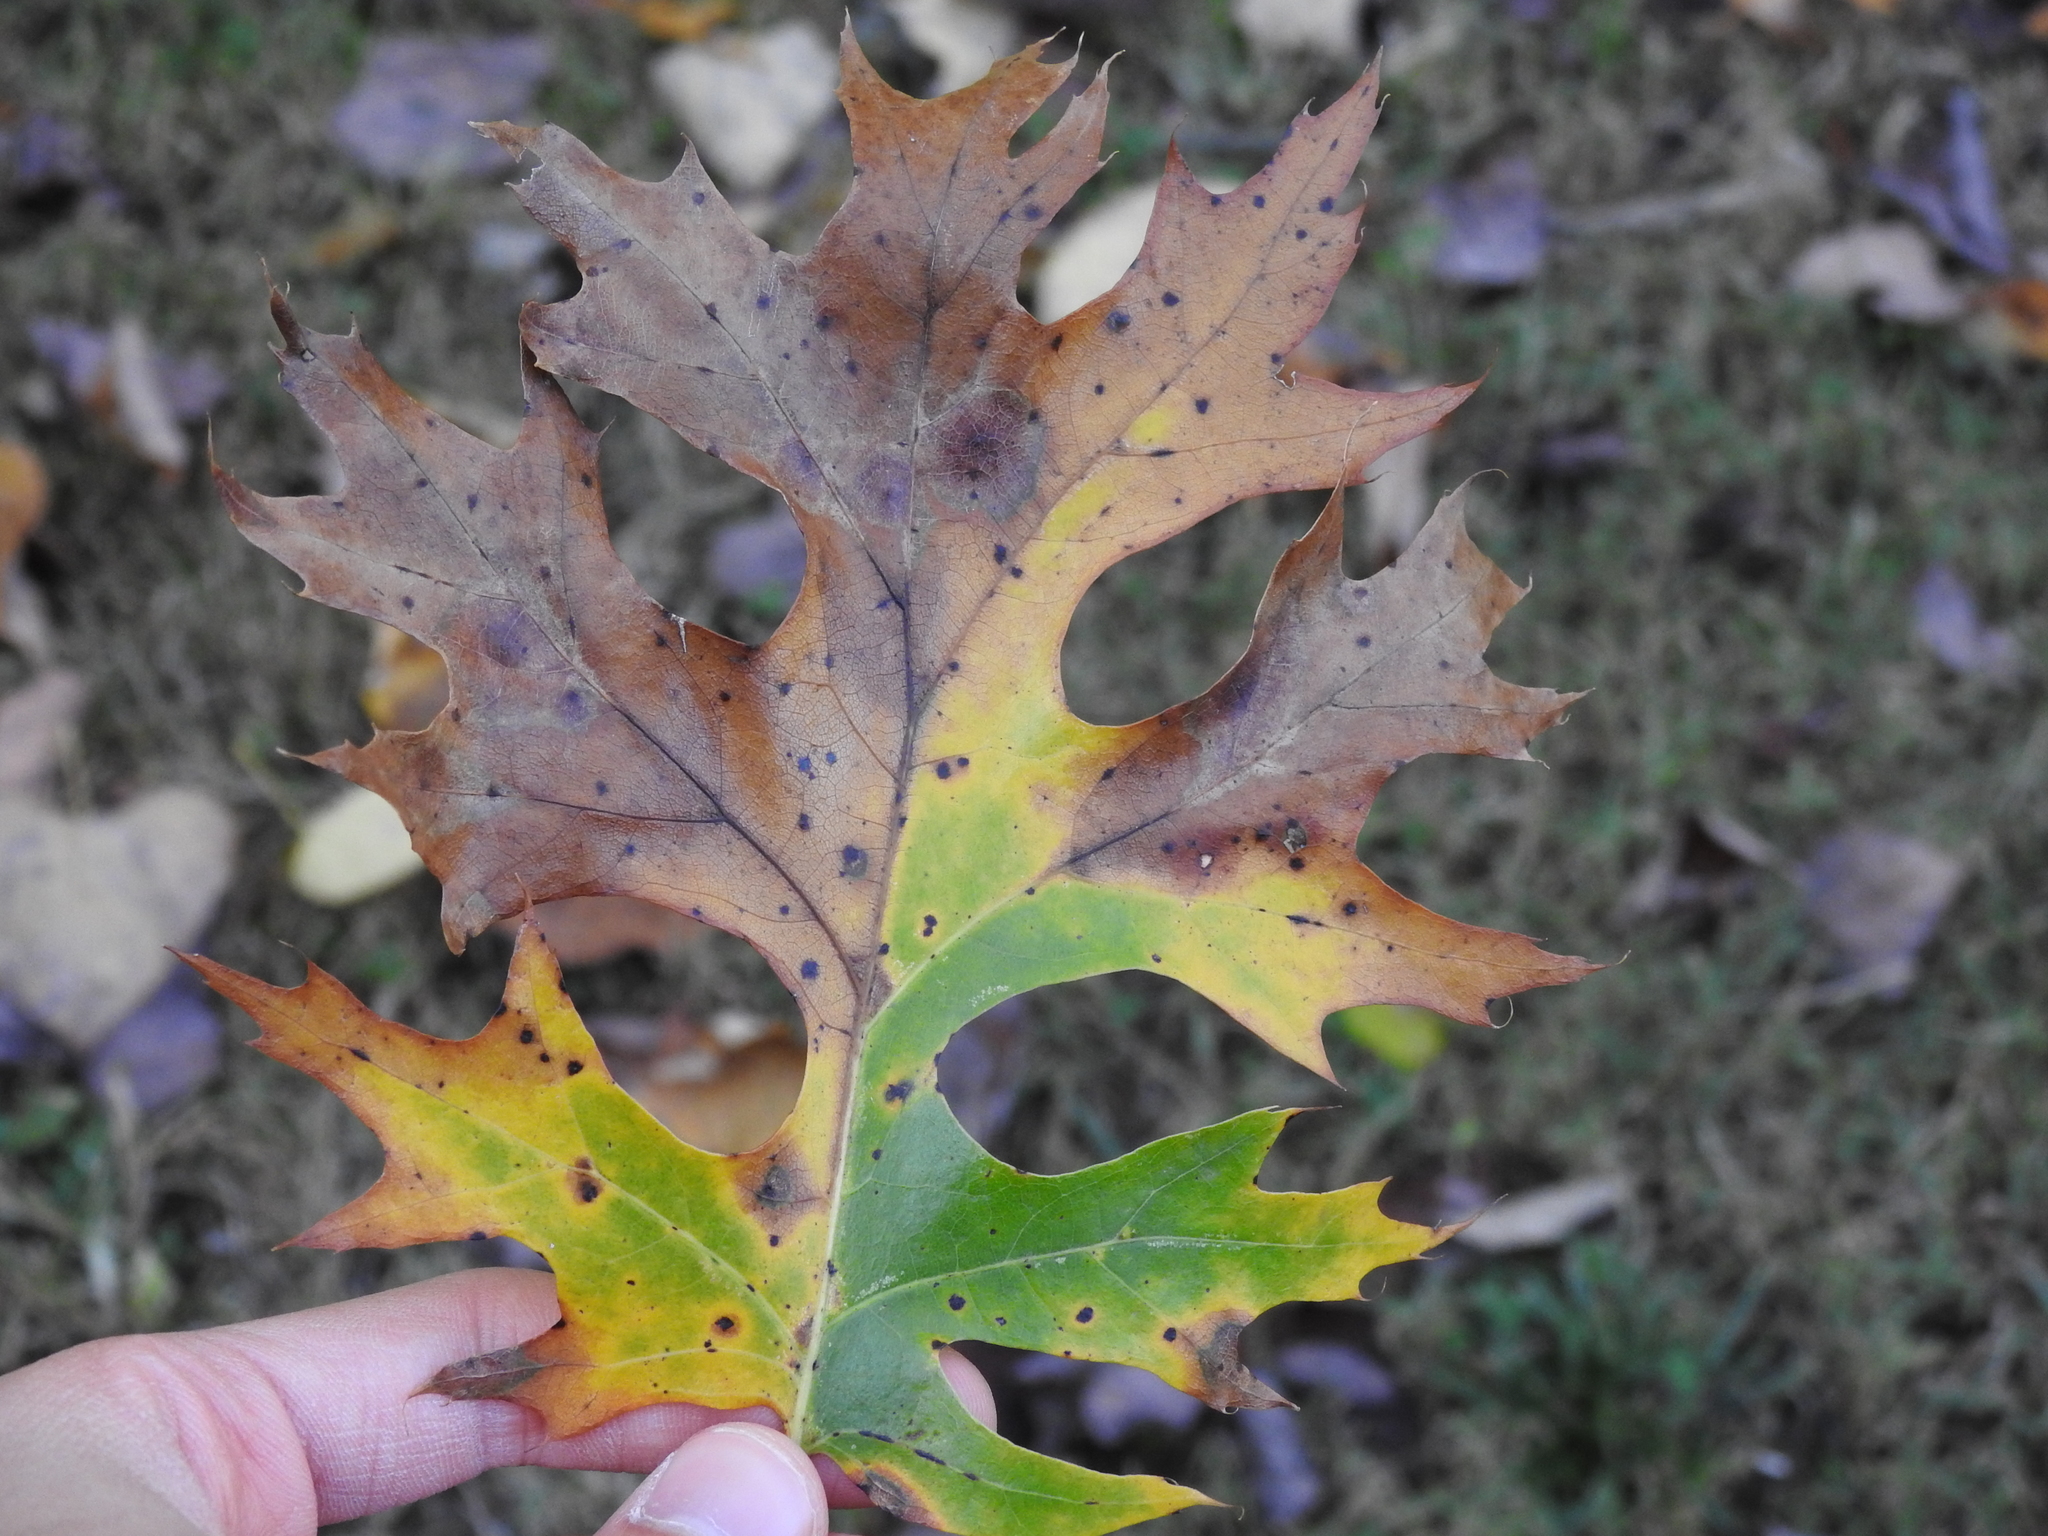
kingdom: Plantae
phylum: Tracheophyta
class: Magnoliopsida
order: Fagales
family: Fagaceae
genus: Quercus
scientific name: Quercus shumardii
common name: Shumard oak
